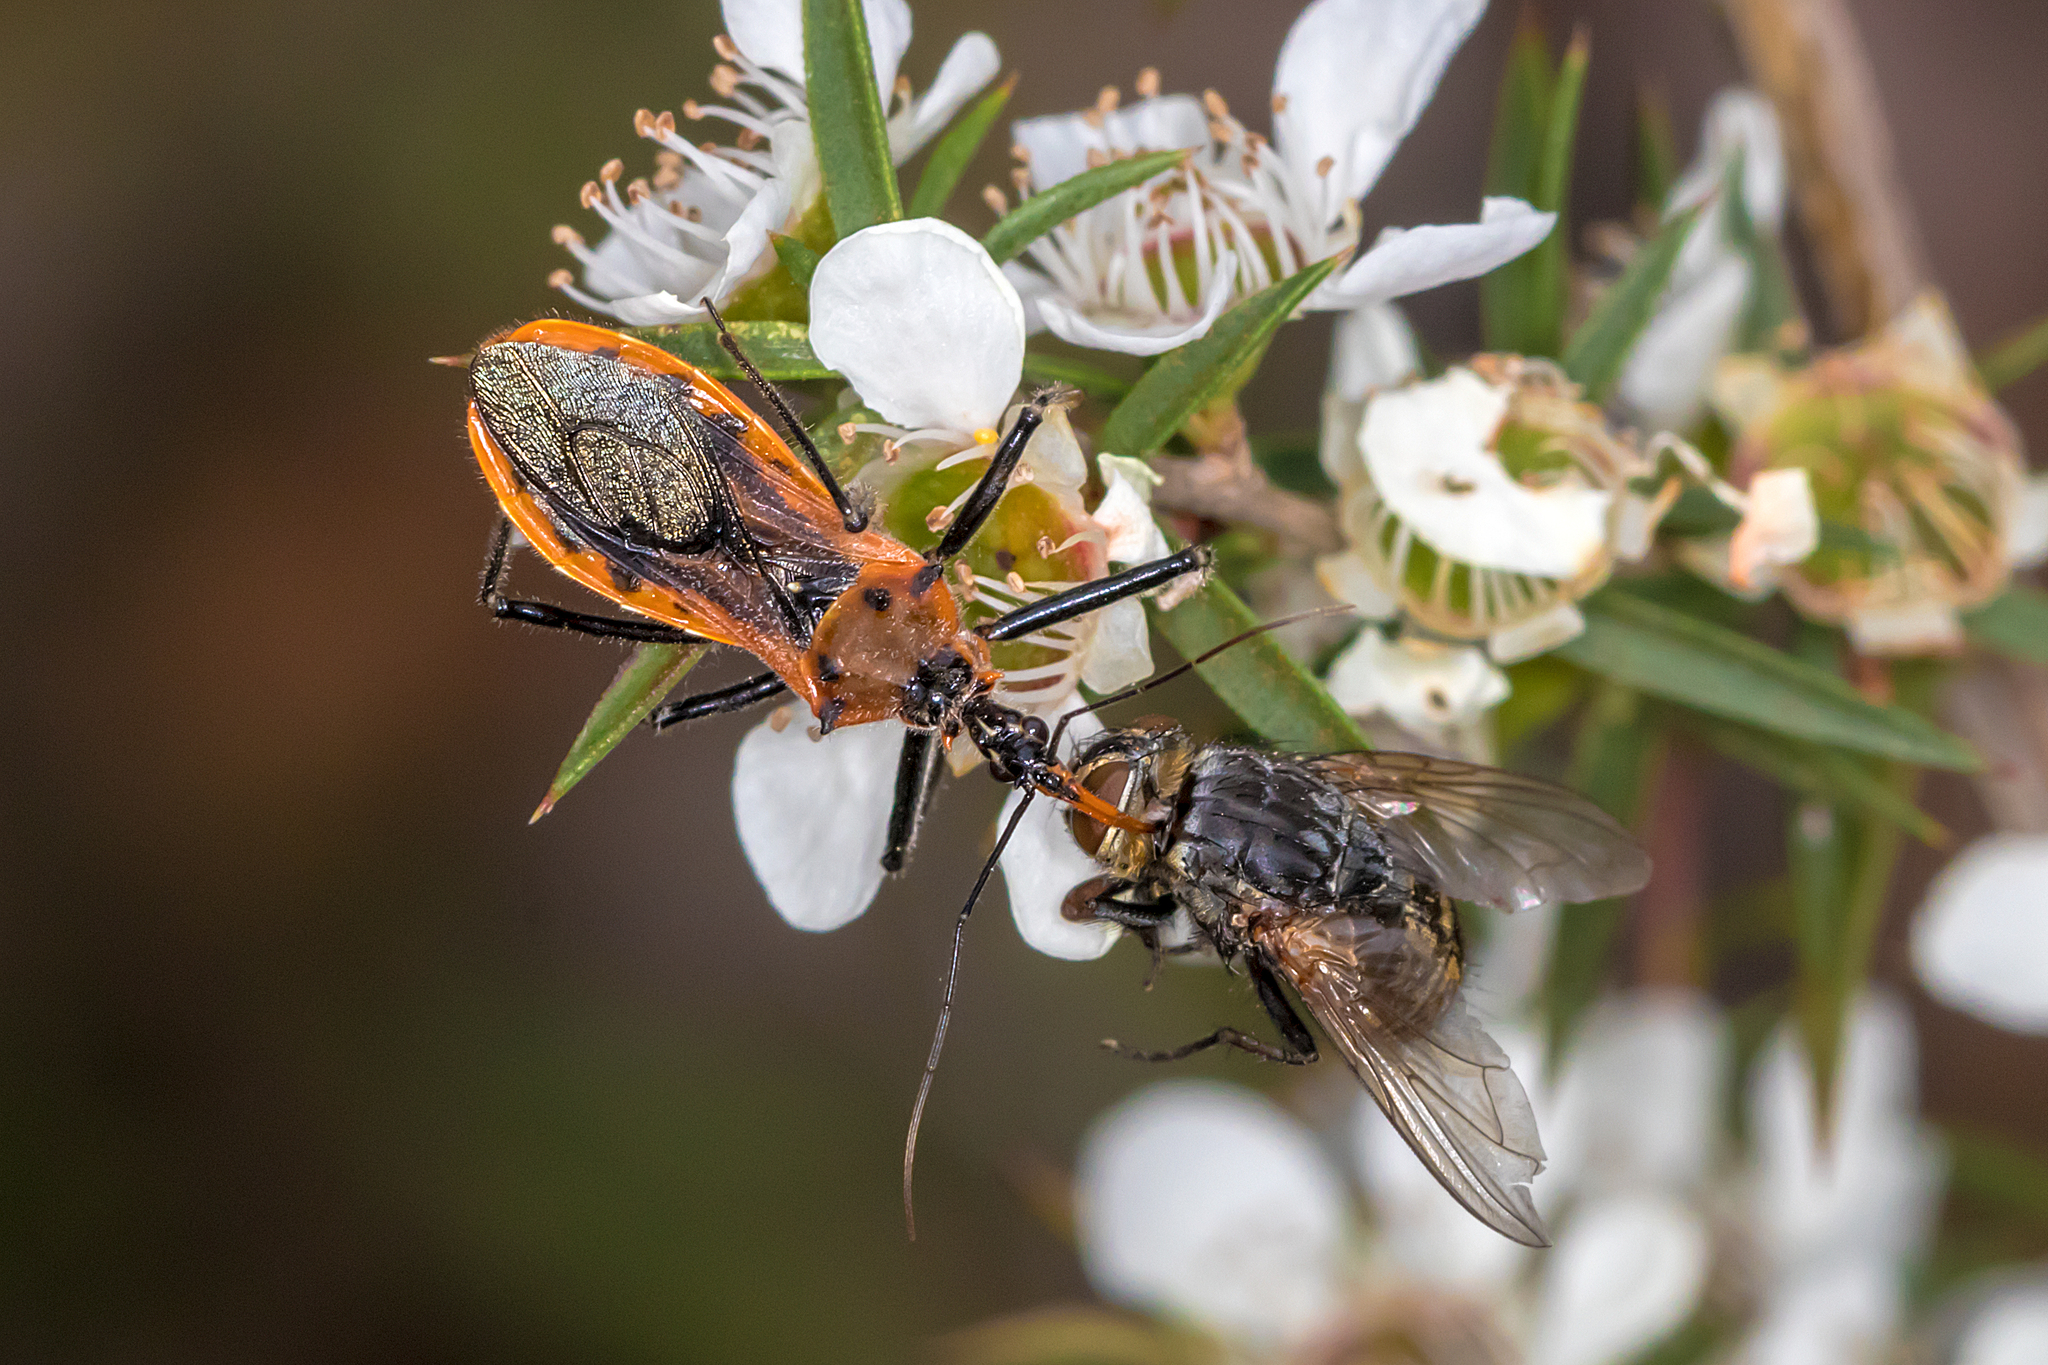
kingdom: Animalia
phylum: Arthropoda
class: Insecta
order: Hemiptera
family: Reduviidae
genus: Gminatus
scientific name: Gminatus australis
